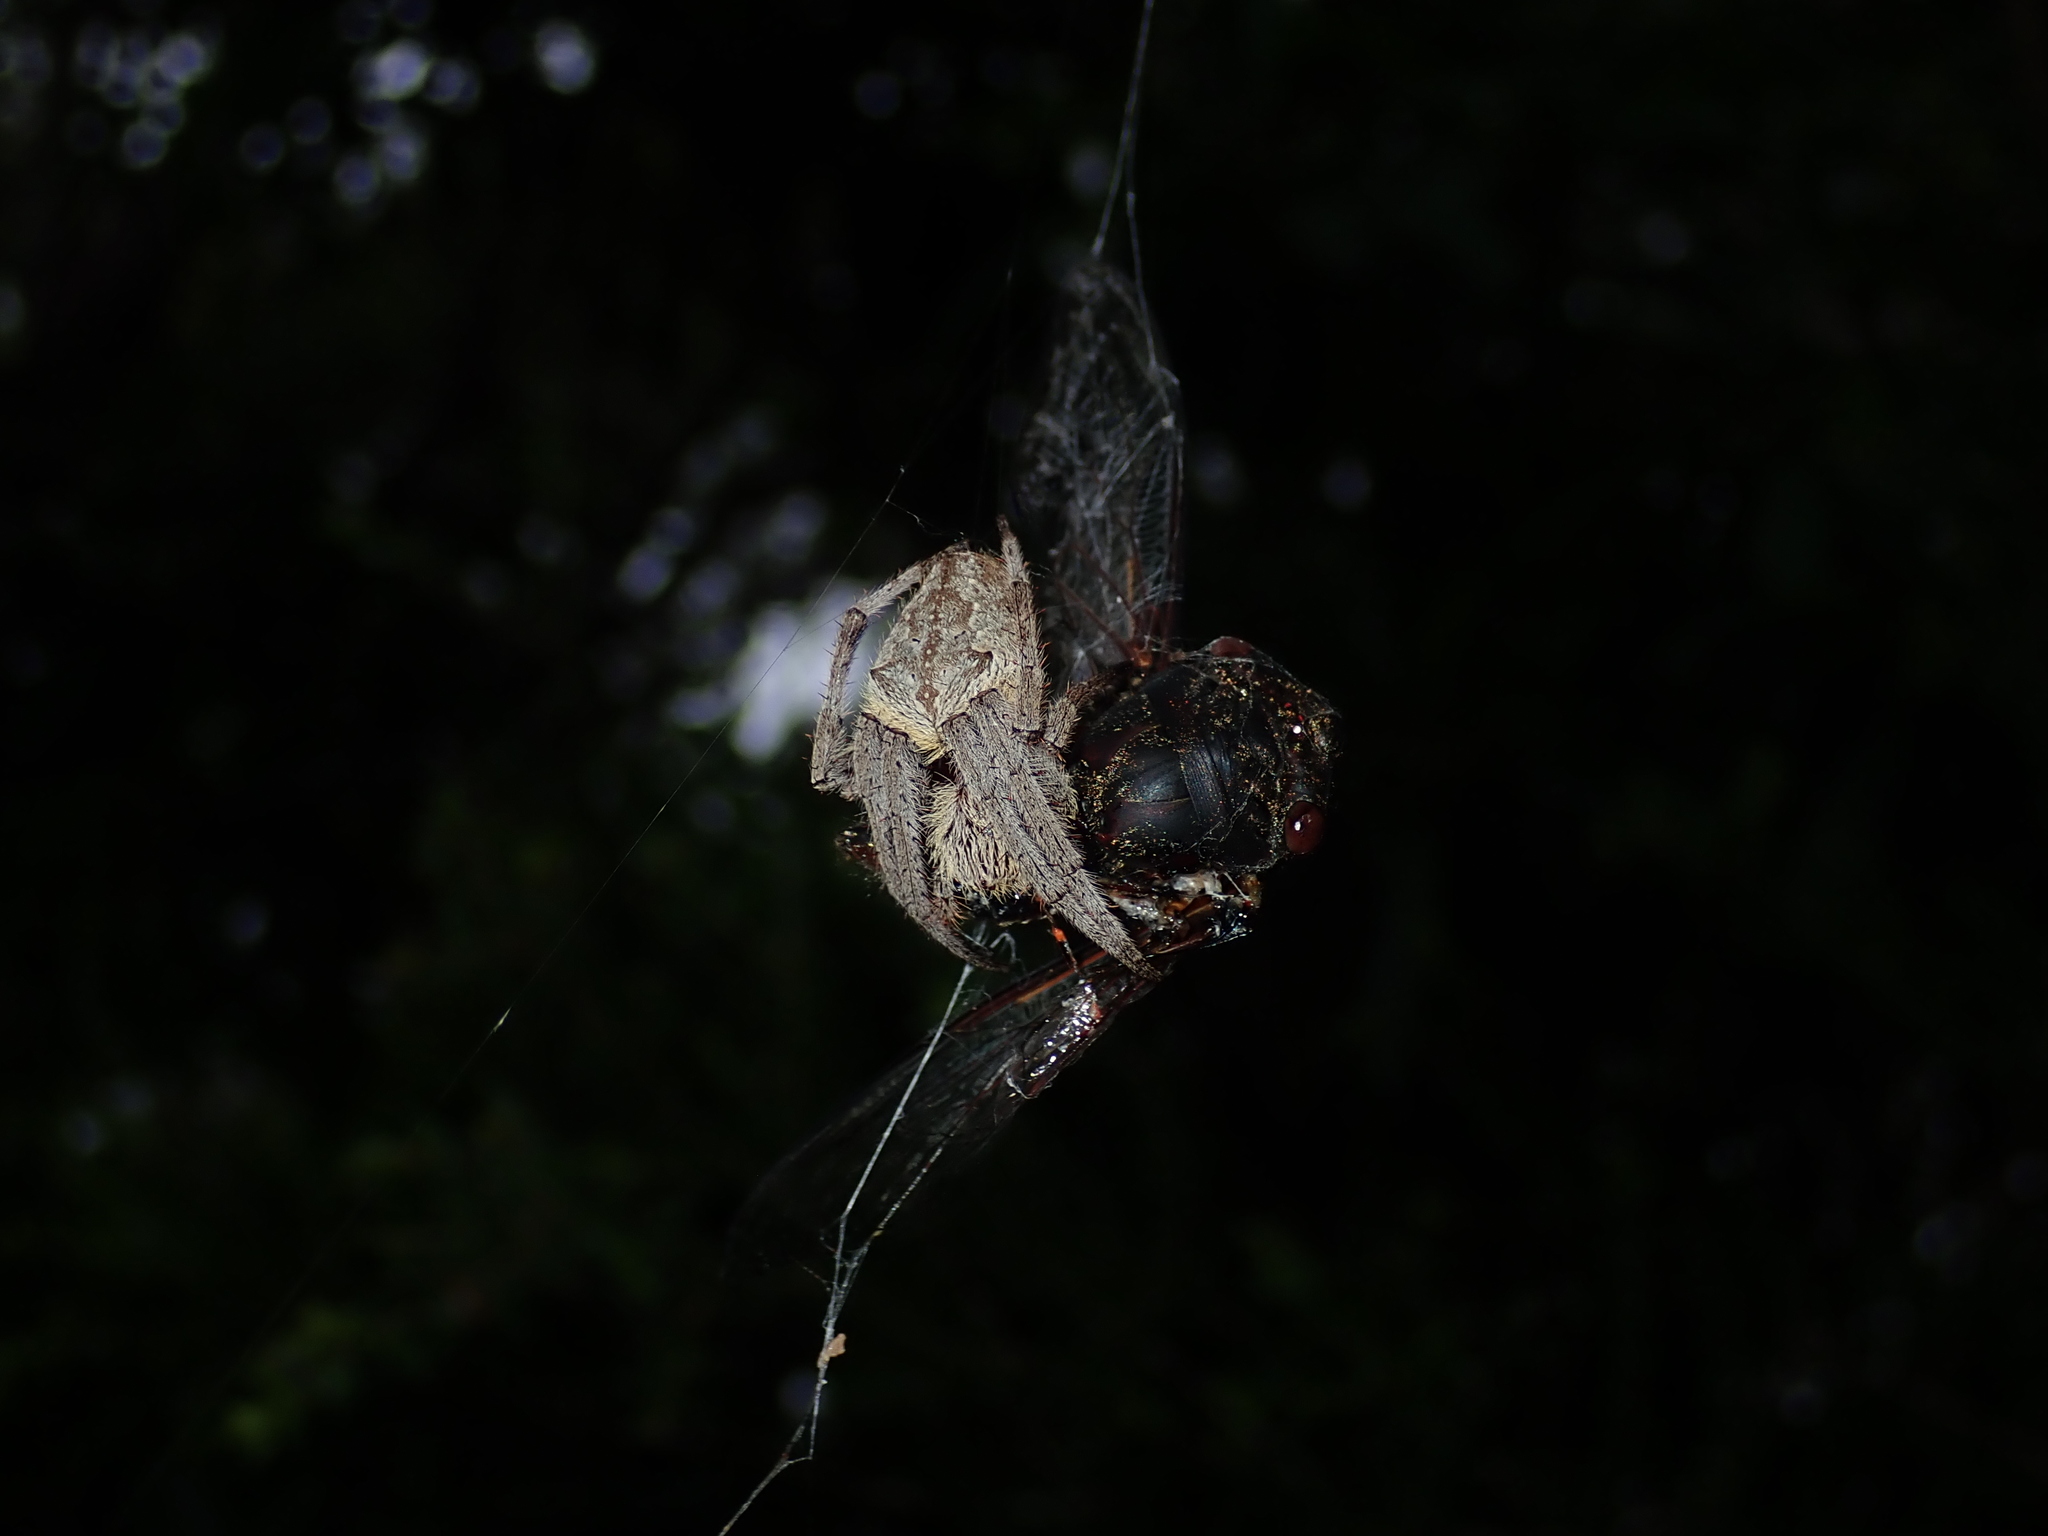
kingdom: Animalia
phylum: Arthropoda
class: Insecta
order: Hemiptera
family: Cicadidae
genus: Psaltoda
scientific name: Psaltoda plaga
